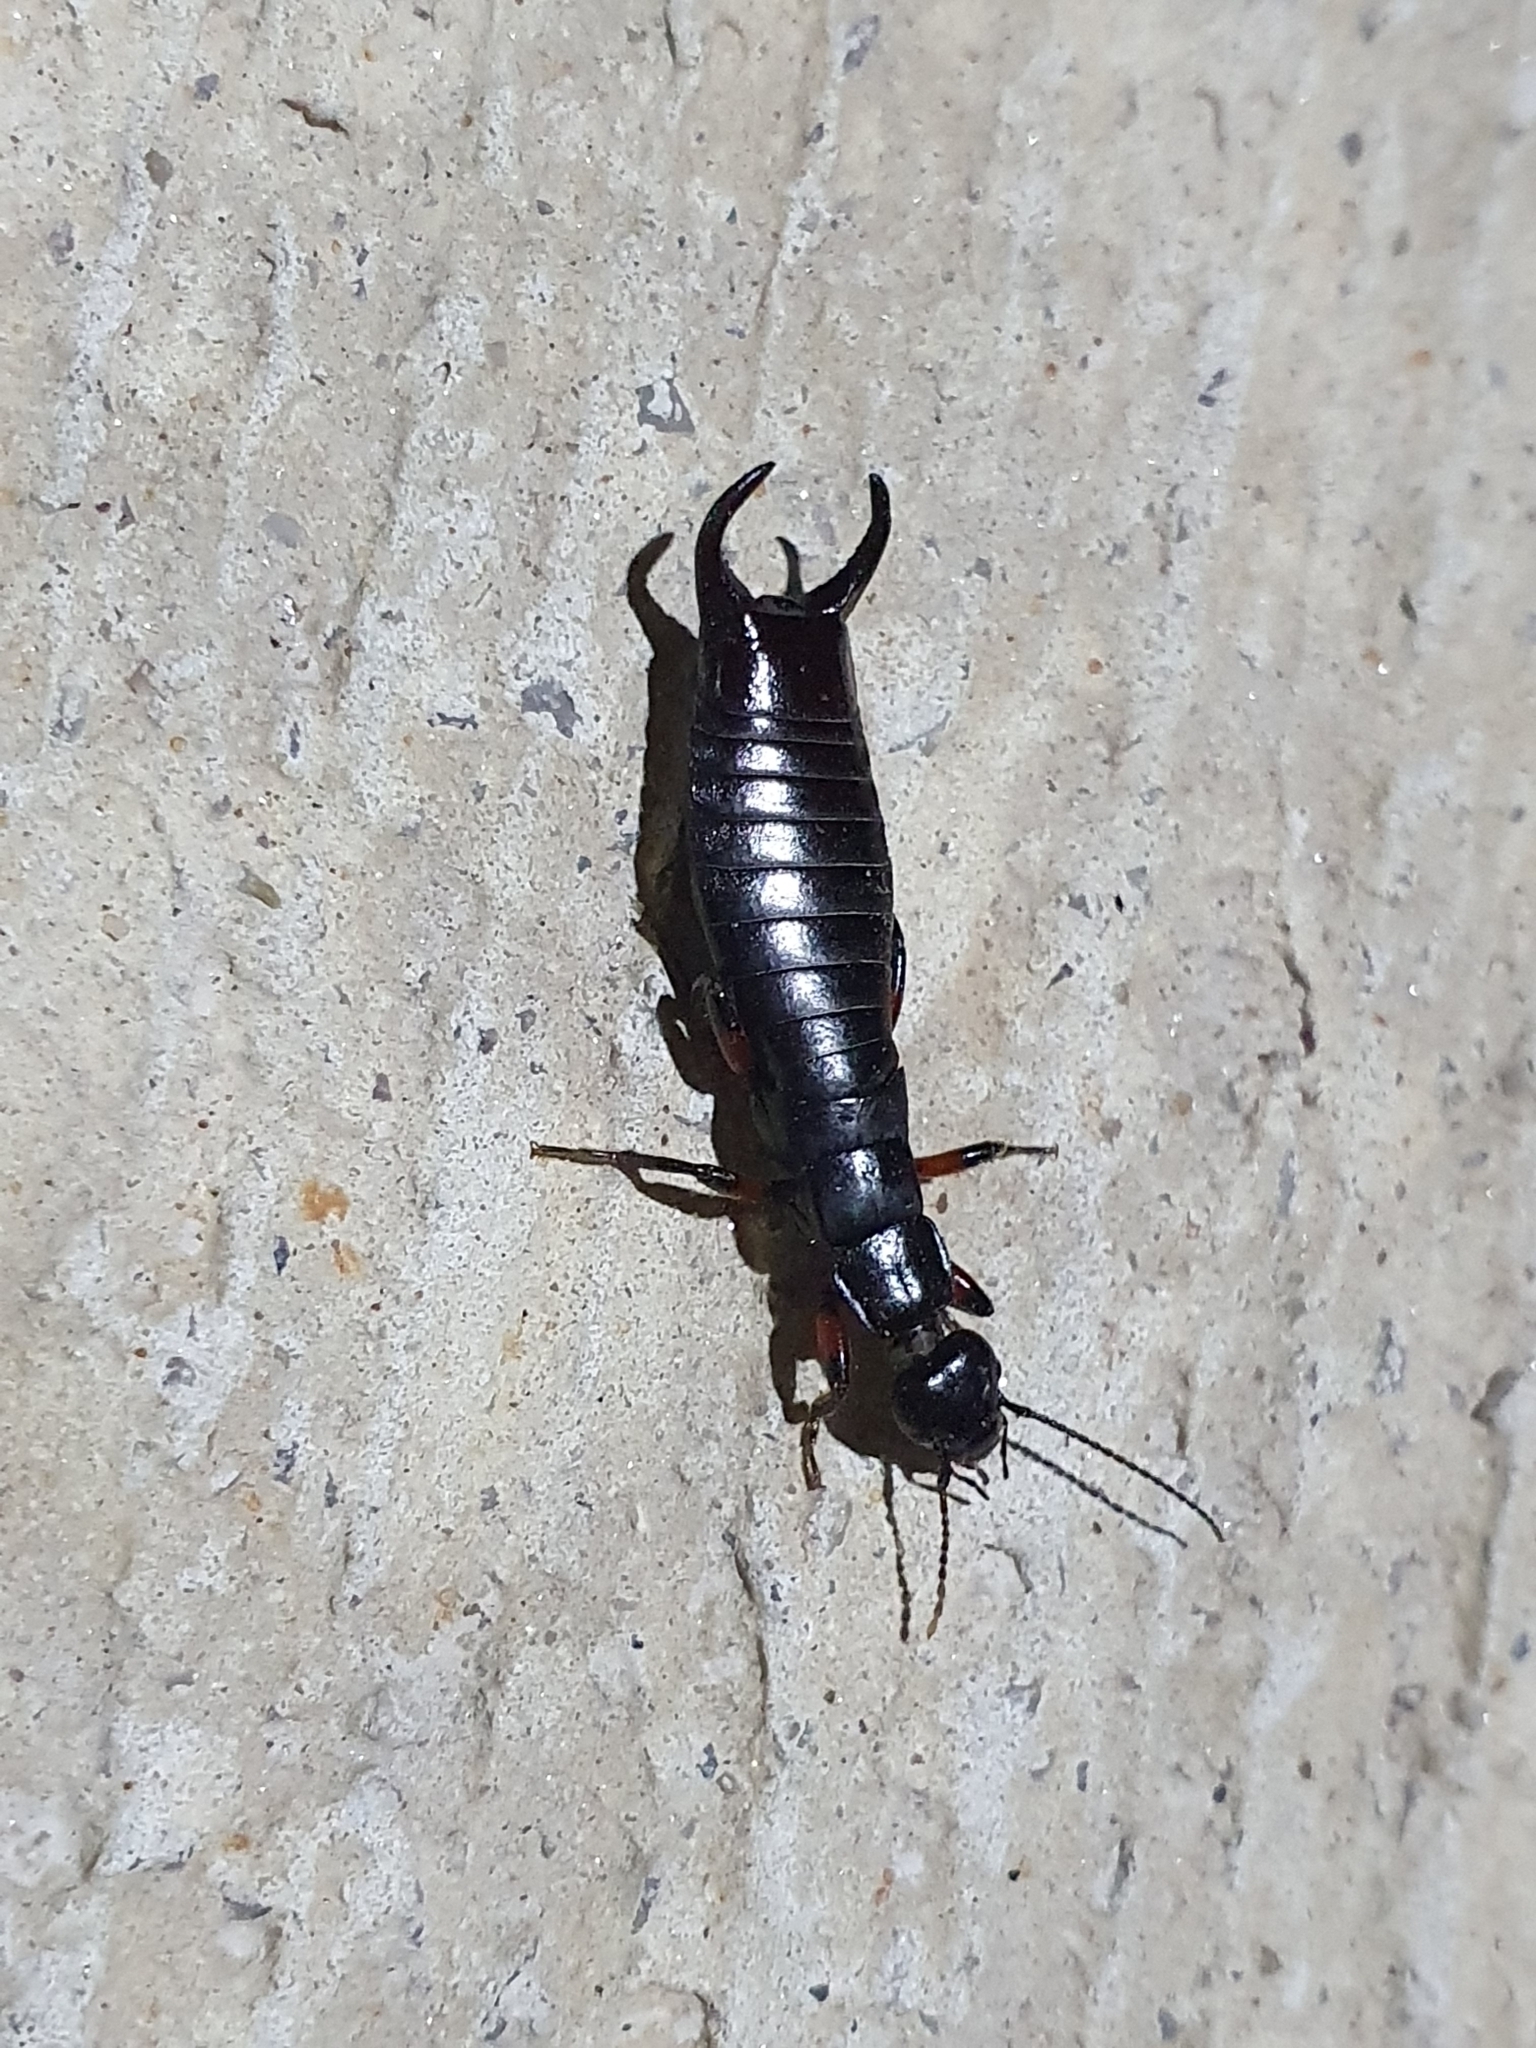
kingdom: Animalia
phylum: Arthropoda
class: Insecta
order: Dermaptera
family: Anisolabididae
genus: Aborolabis
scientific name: Aborolabis mauritanica
